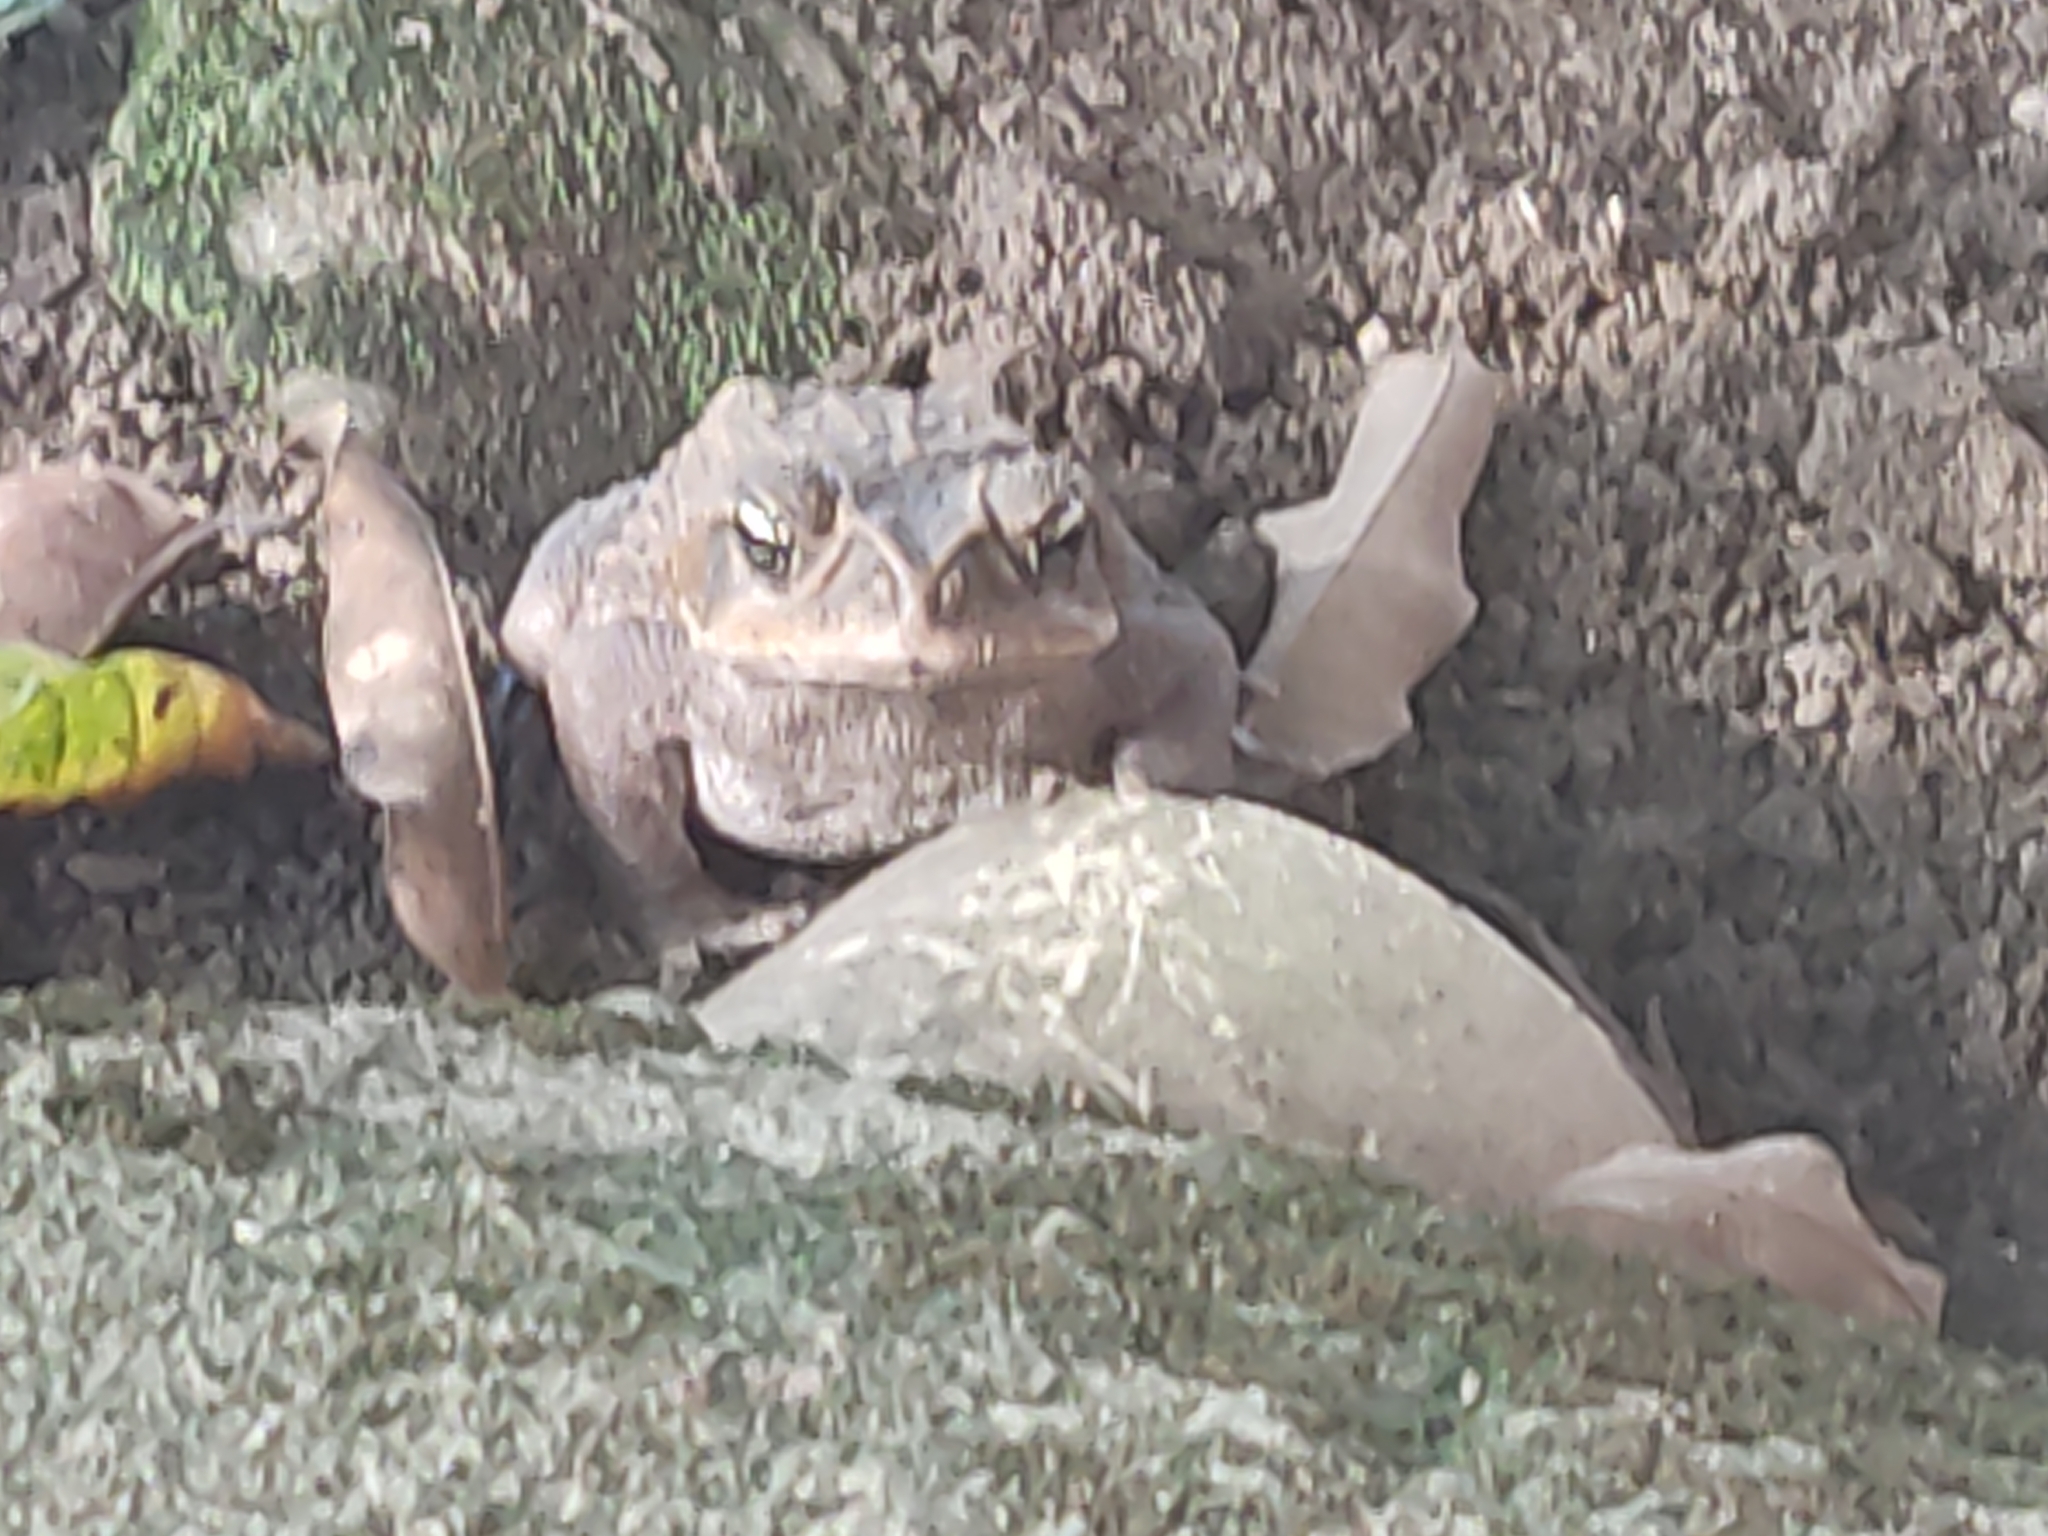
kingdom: Animalia
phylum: Chordata
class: Amphibia
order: Anura
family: Bufonidae
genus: Rhinella
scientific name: Rhinella horribilis
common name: Mesoamerican cane toad
